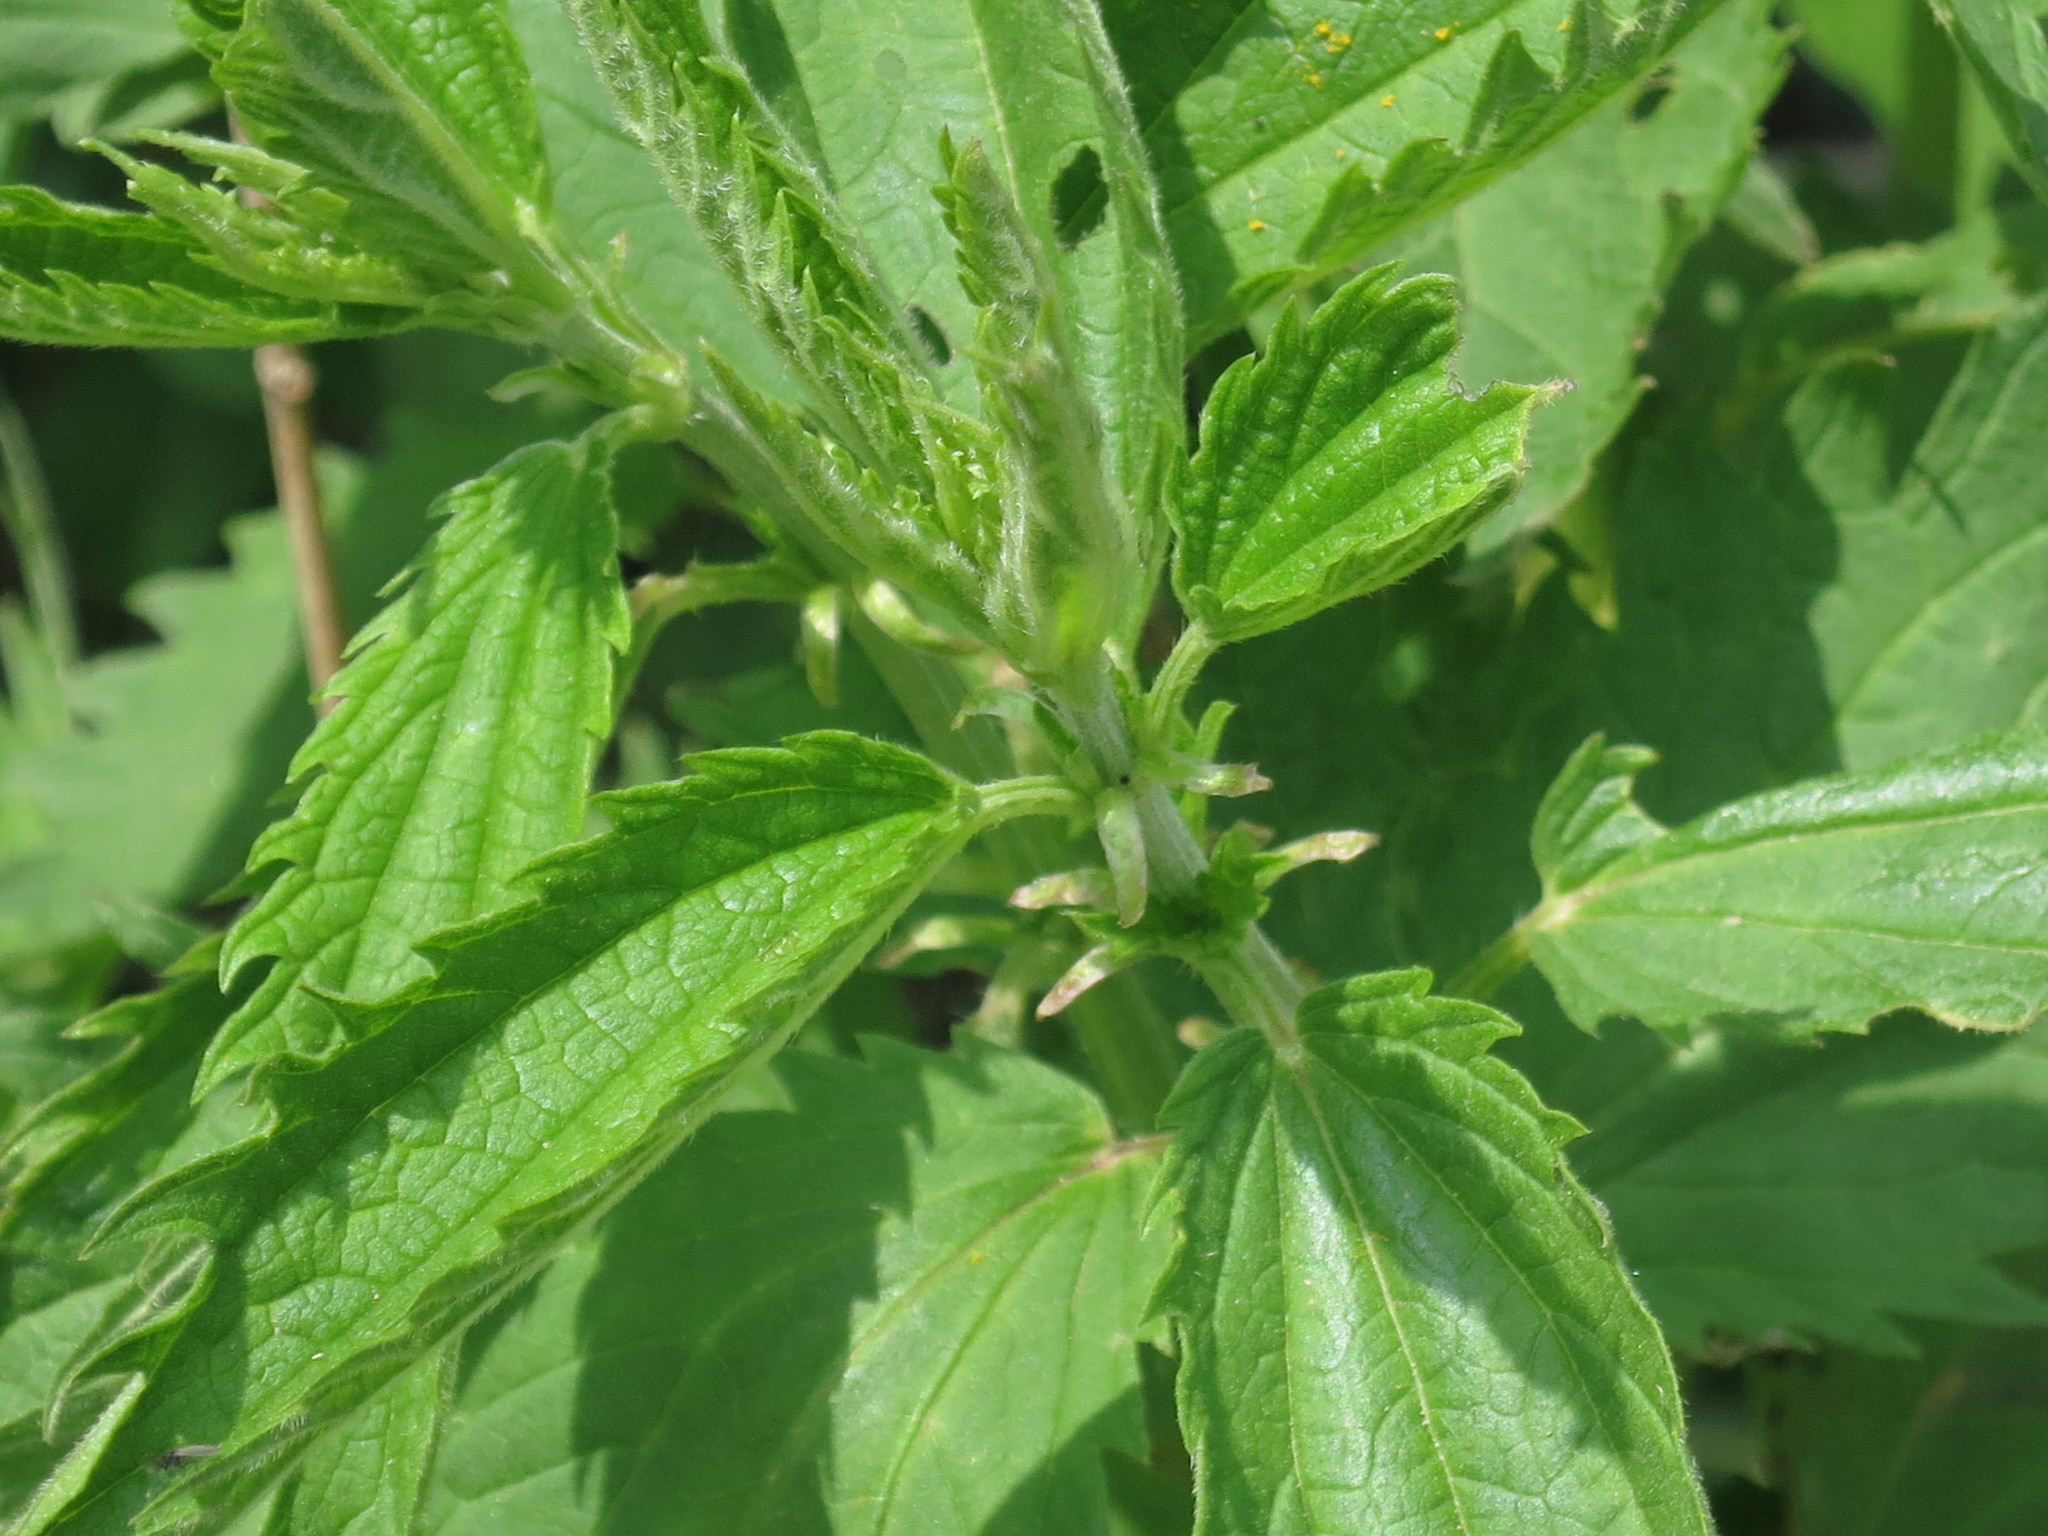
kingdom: Plantae
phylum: Tracheophyta
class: Magnoliopsida
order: Rosales
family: Urticaceae
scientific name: Urticaceae
